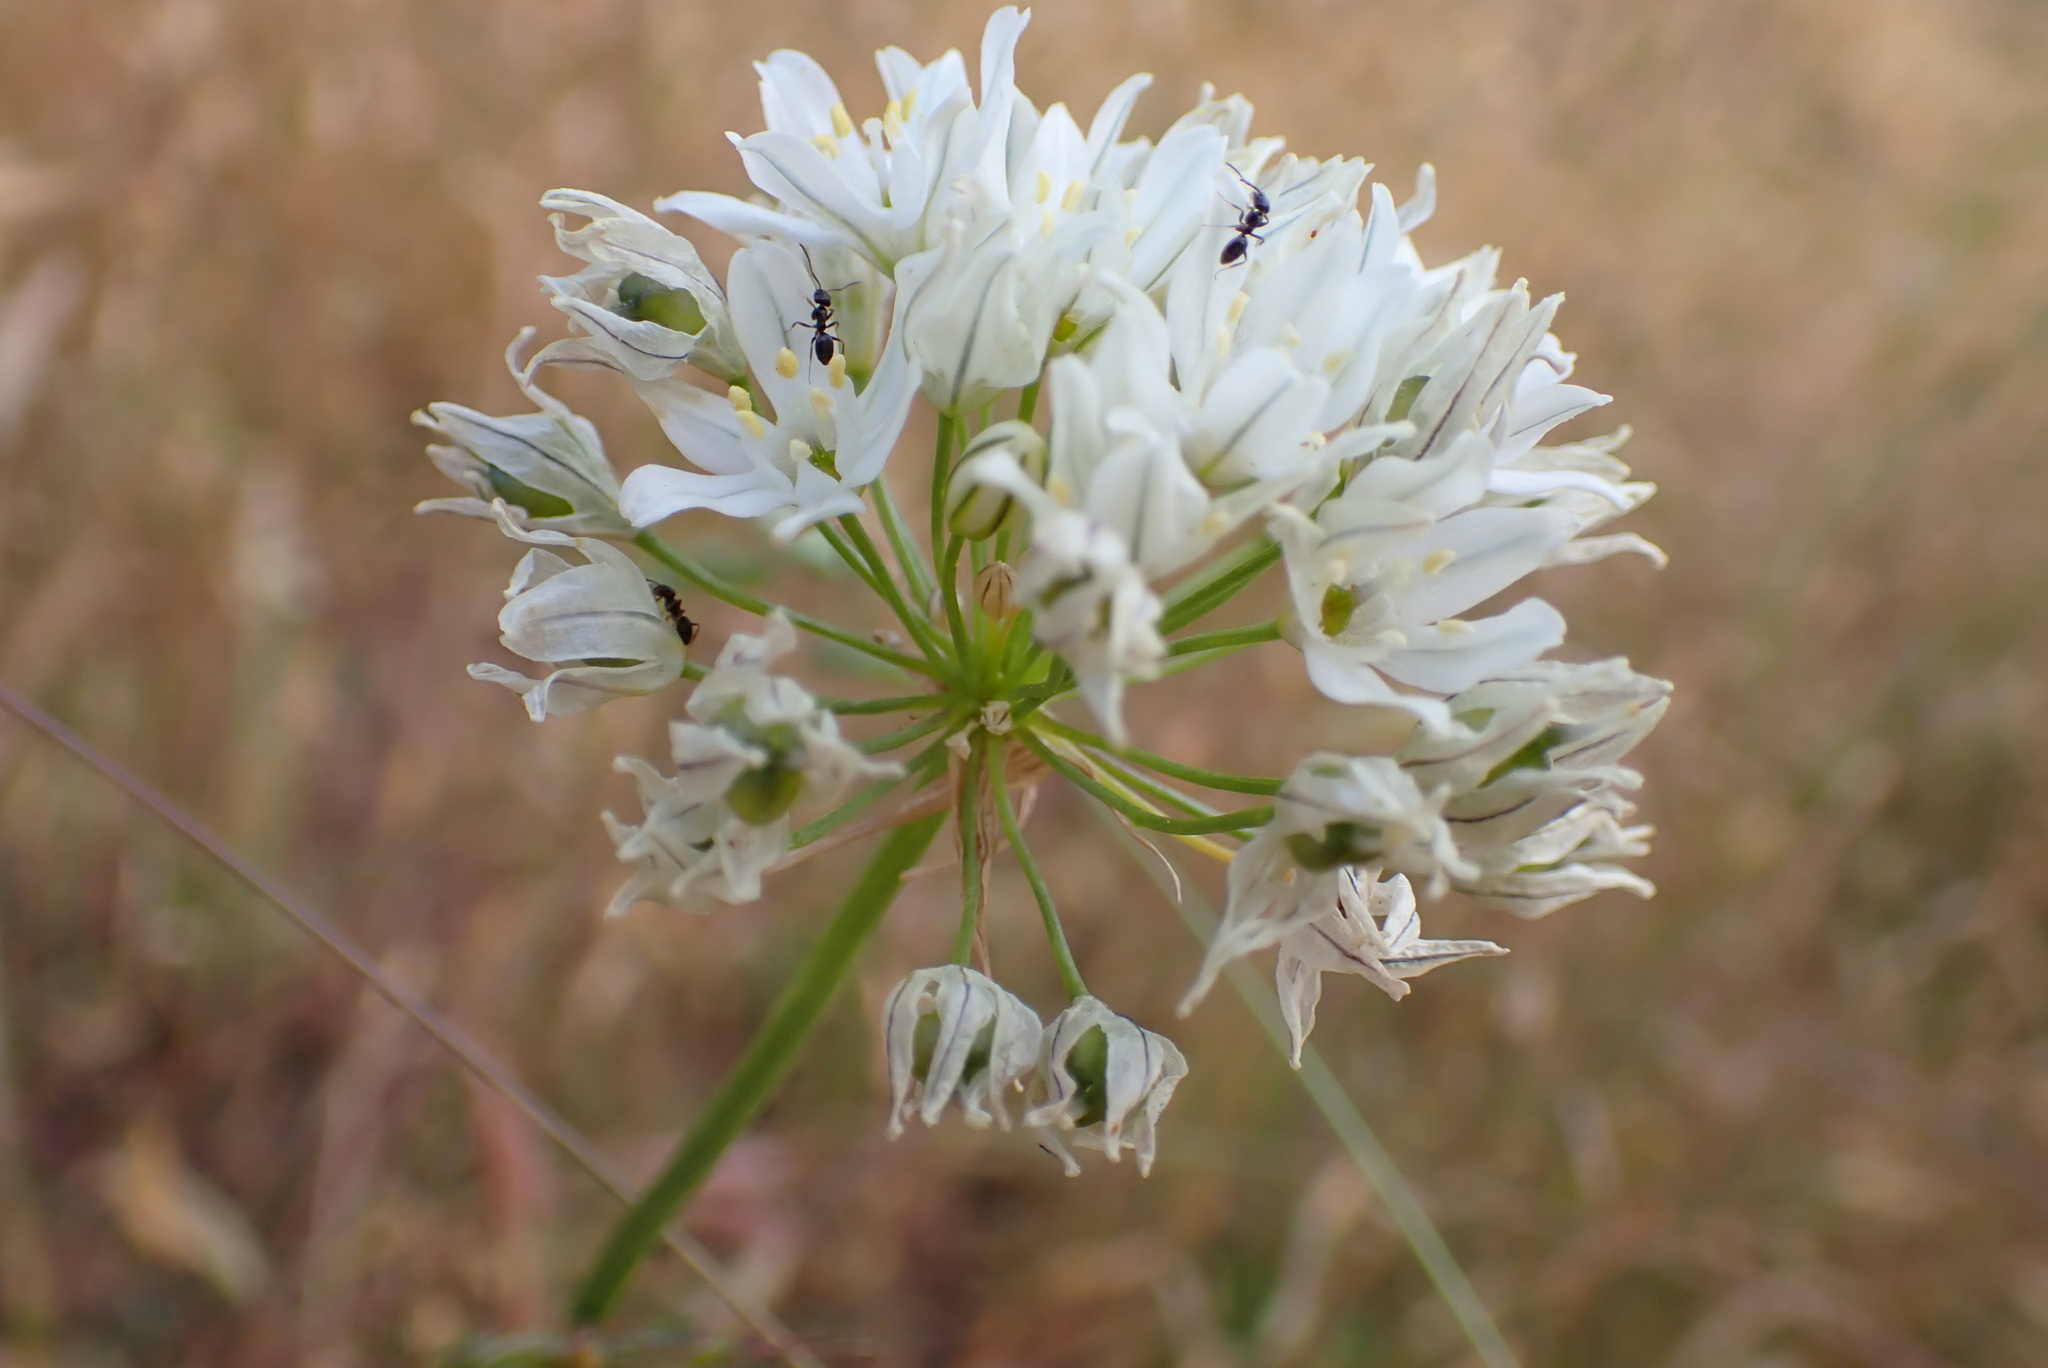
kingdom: Plantae
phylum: Tracheophyta
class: Liliopsida
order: Asparagales
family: Asparagaceae
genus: Triteleia
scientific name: Triteleia hyacinthina
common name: White brodiaea
